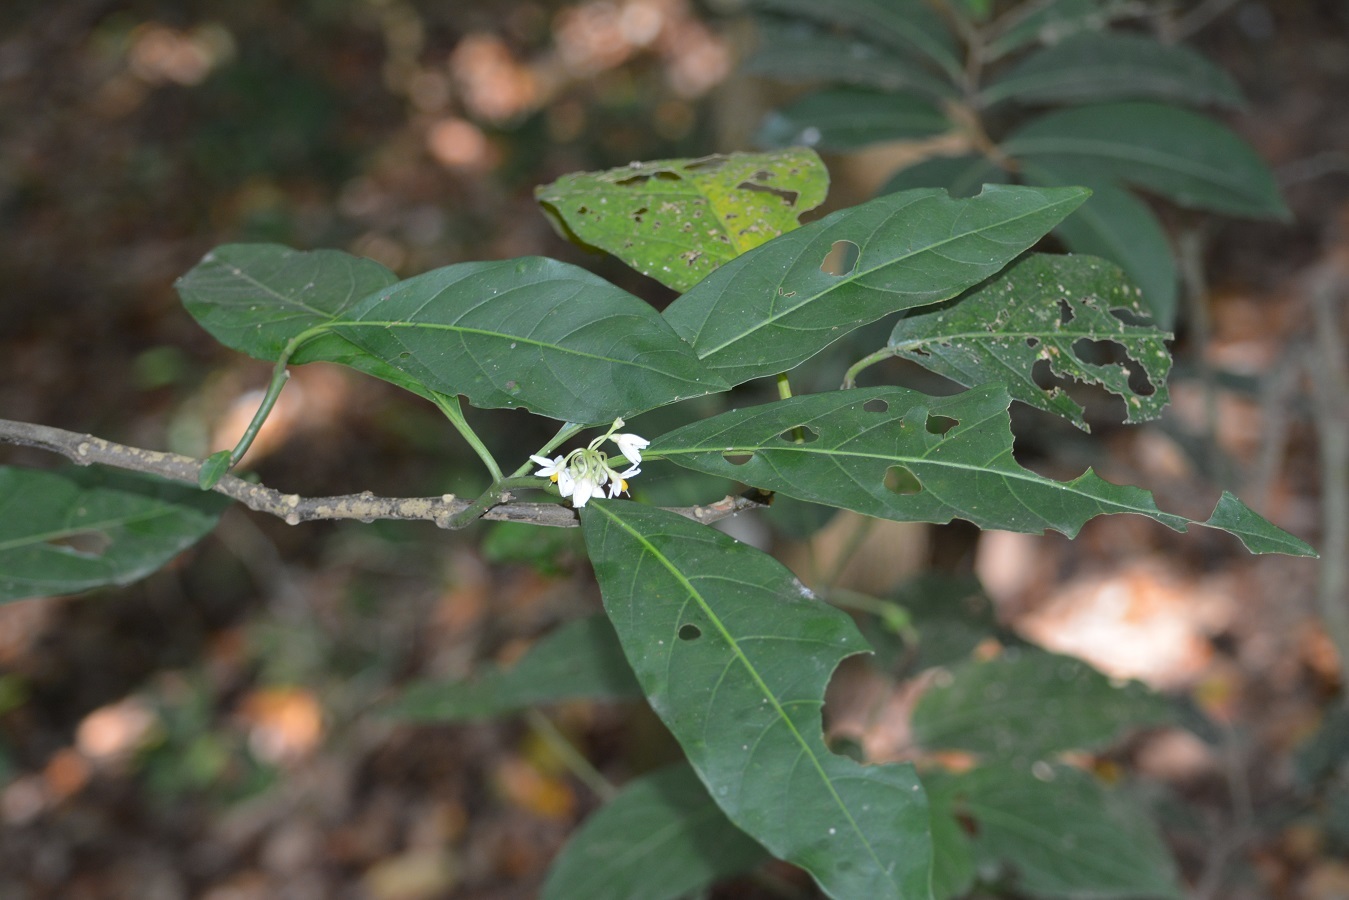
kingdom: Plantae
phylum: Tracheophyta
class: Magnoliopsida
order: Solanales
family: Solanaceae
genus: Solanum
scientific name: Solanum rovirosanum
